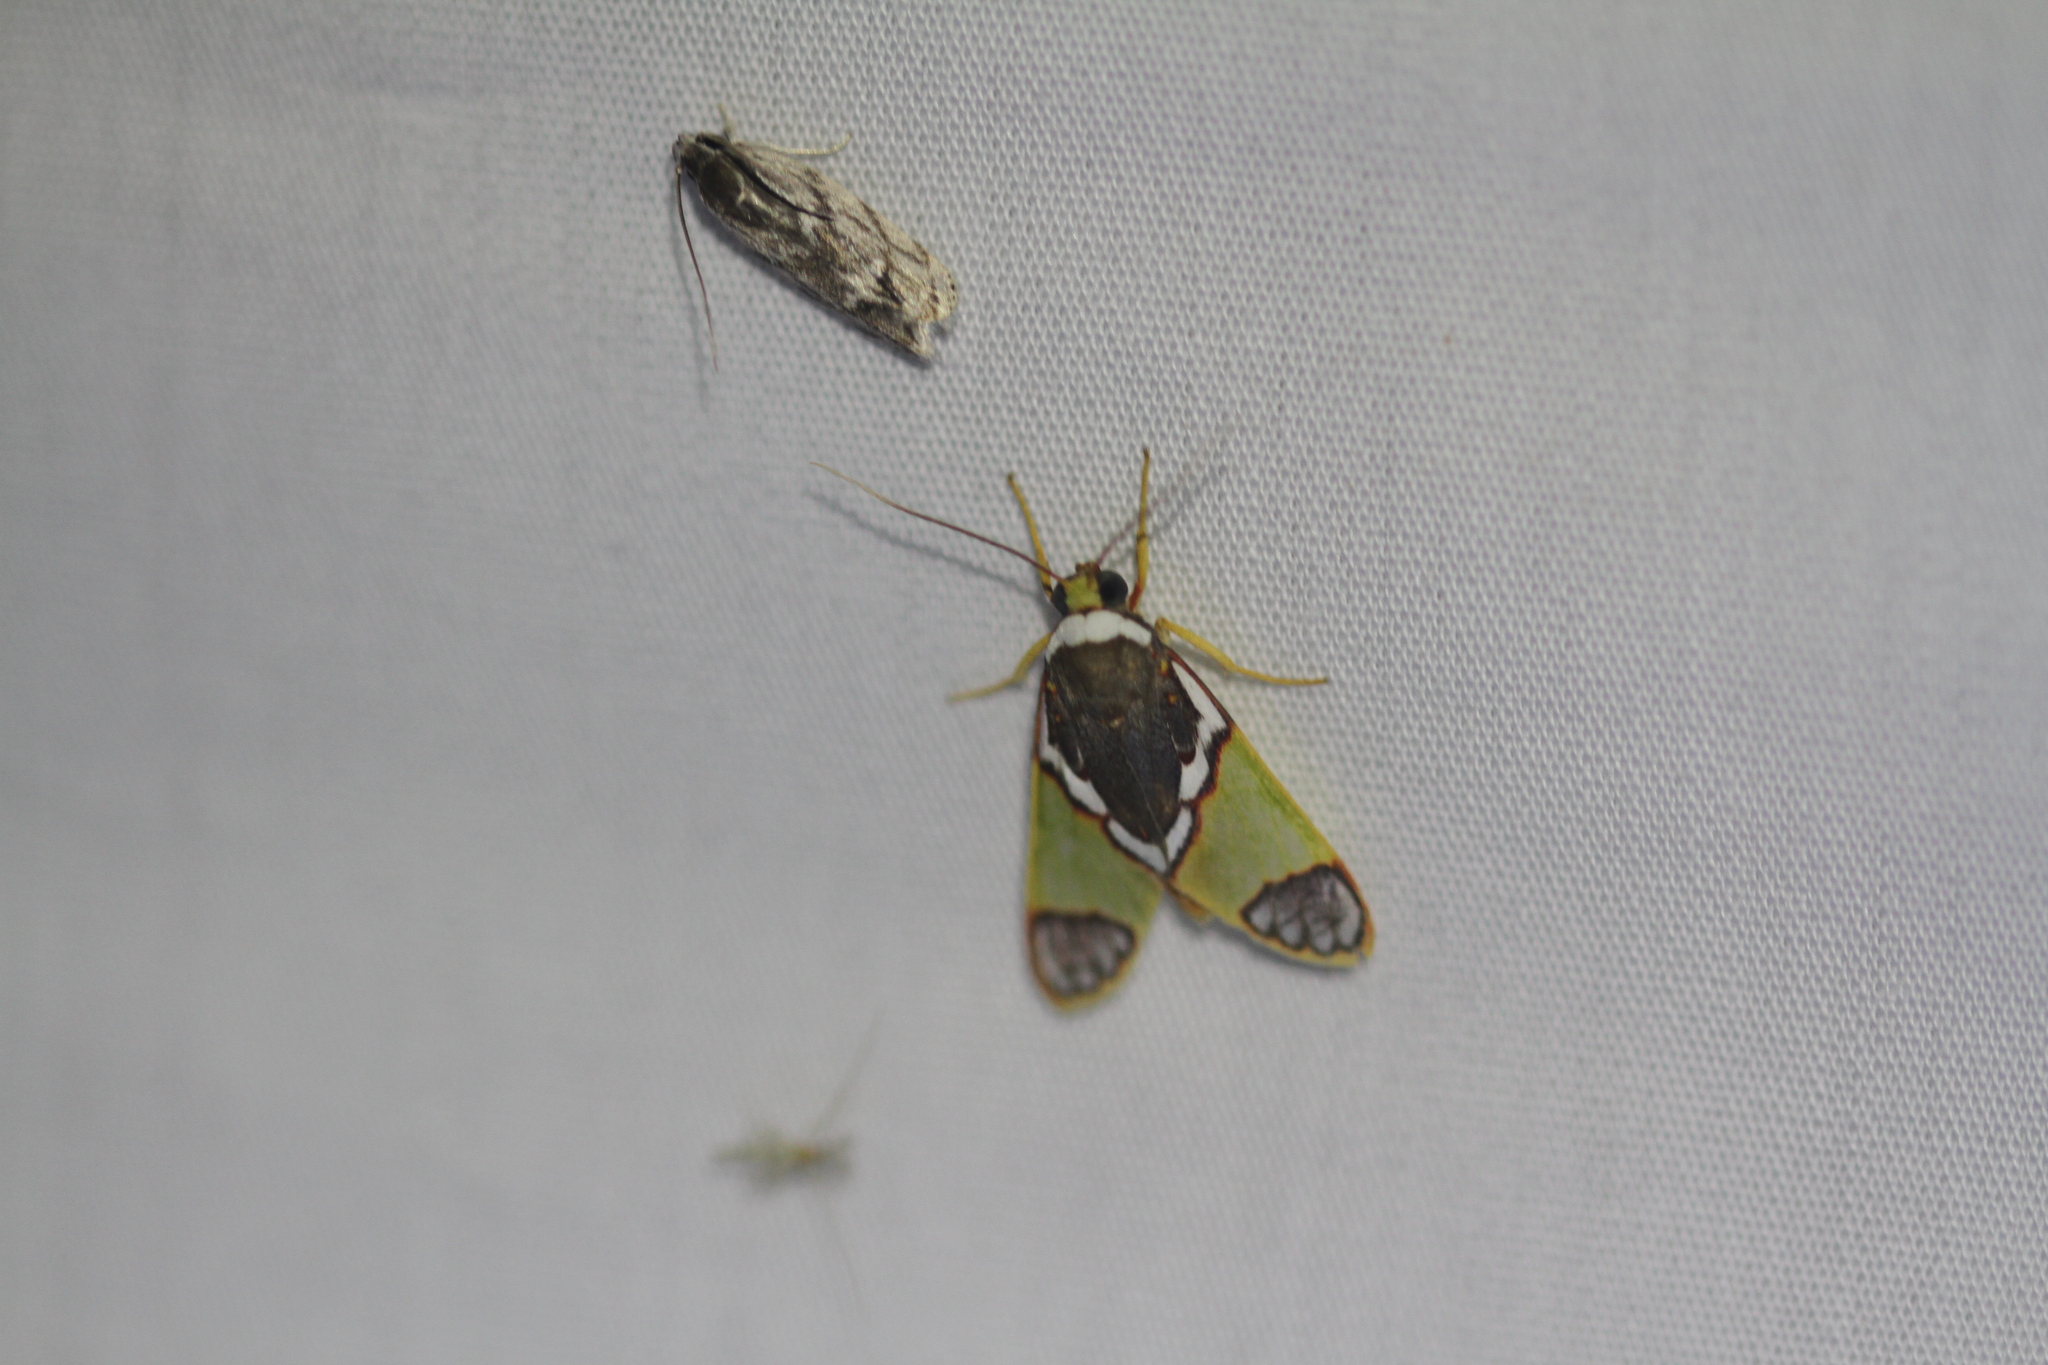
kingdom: Animalia
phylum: Arthropoda
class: Insecta
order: Lepidoptera
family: Erebidae
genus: Neritos
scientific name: Neritos albicollis
